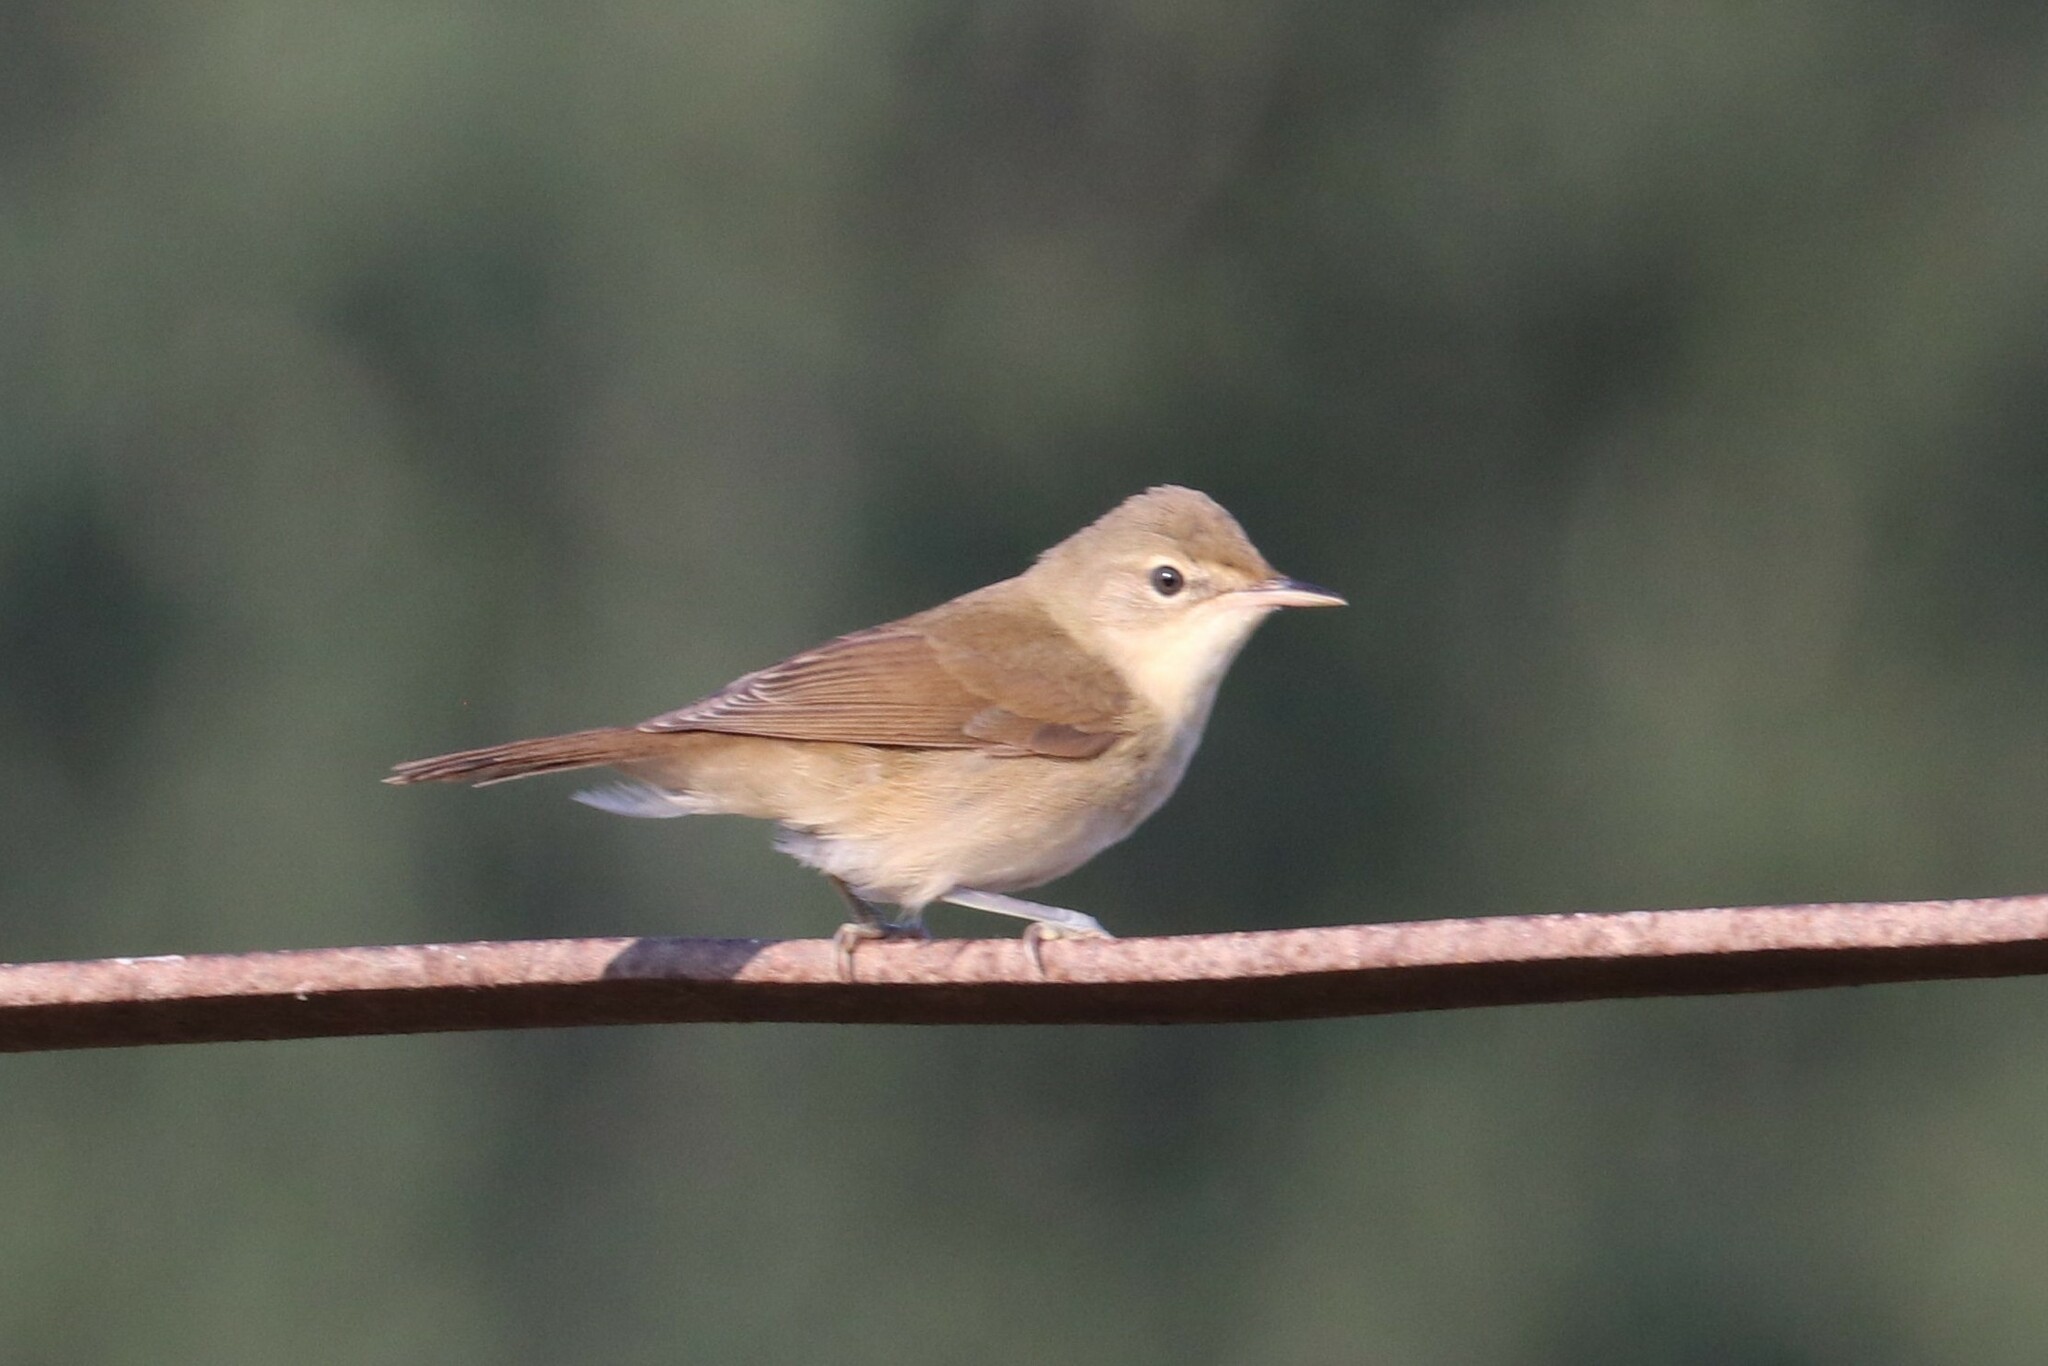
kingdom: Animalia
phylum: Chordata
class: Aves
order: Passeriformes
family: Acrocephalidae
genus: Acrocephalus
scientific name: Acrocephalus dumetorum
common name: Blyth's reed warbler
